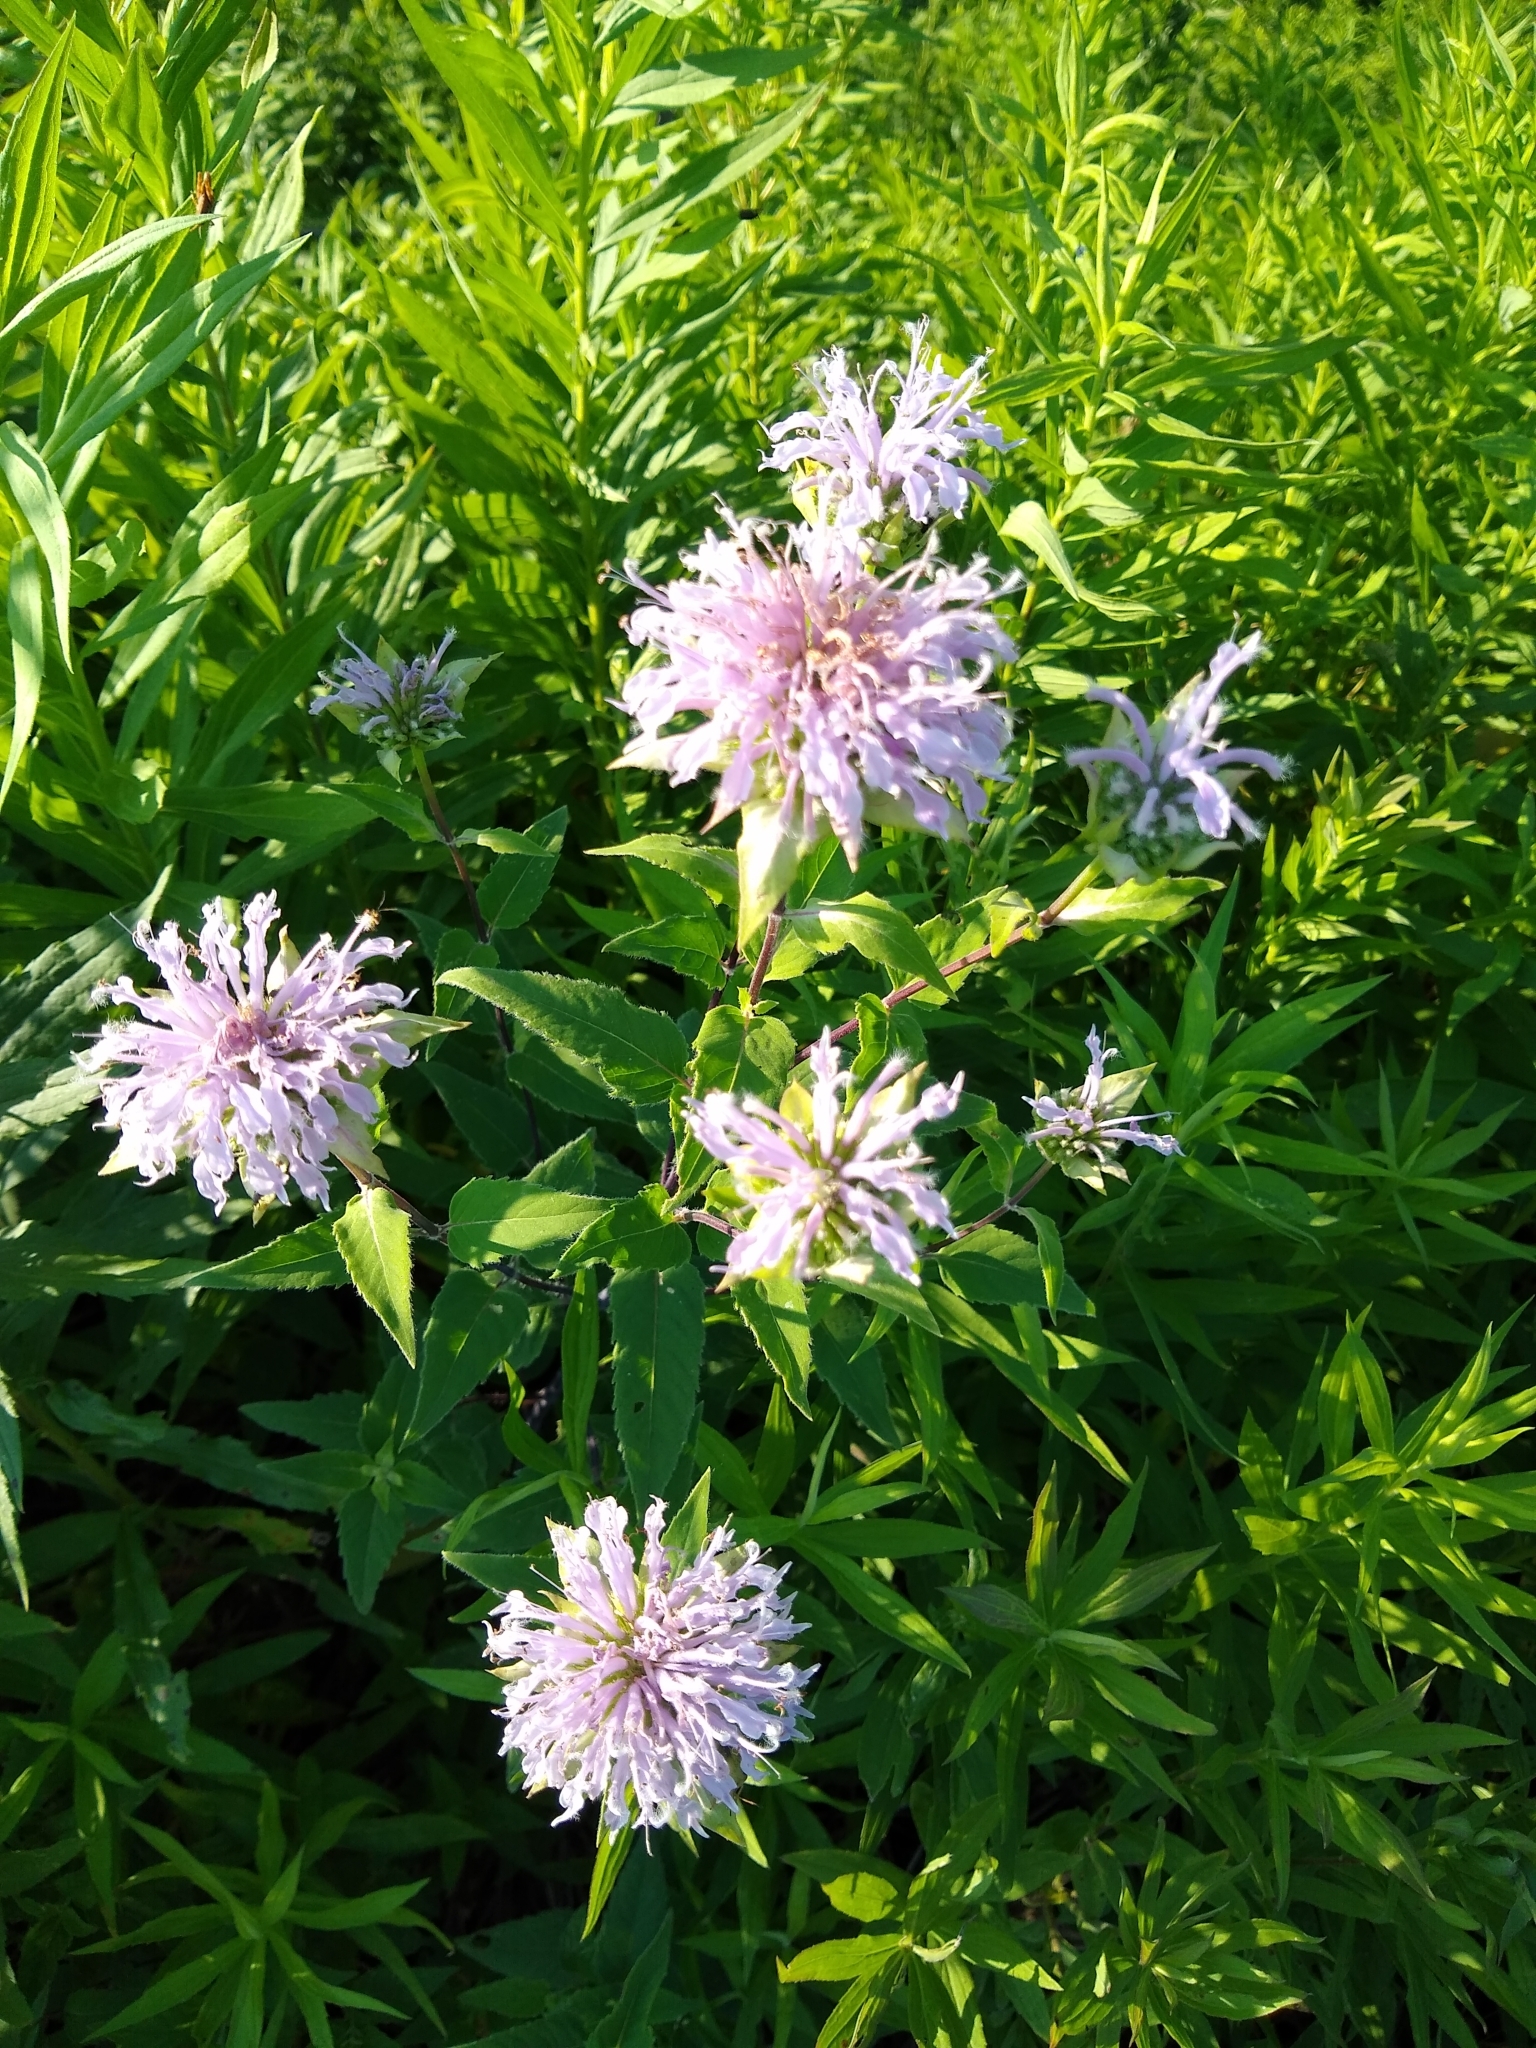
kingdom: Plantae
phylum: Tracheophyta
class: Magnoliopsida
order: Lamiales
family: Lamiaceae
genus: Monarda
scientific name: Monarda fistulosa
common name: Purple beebalm
